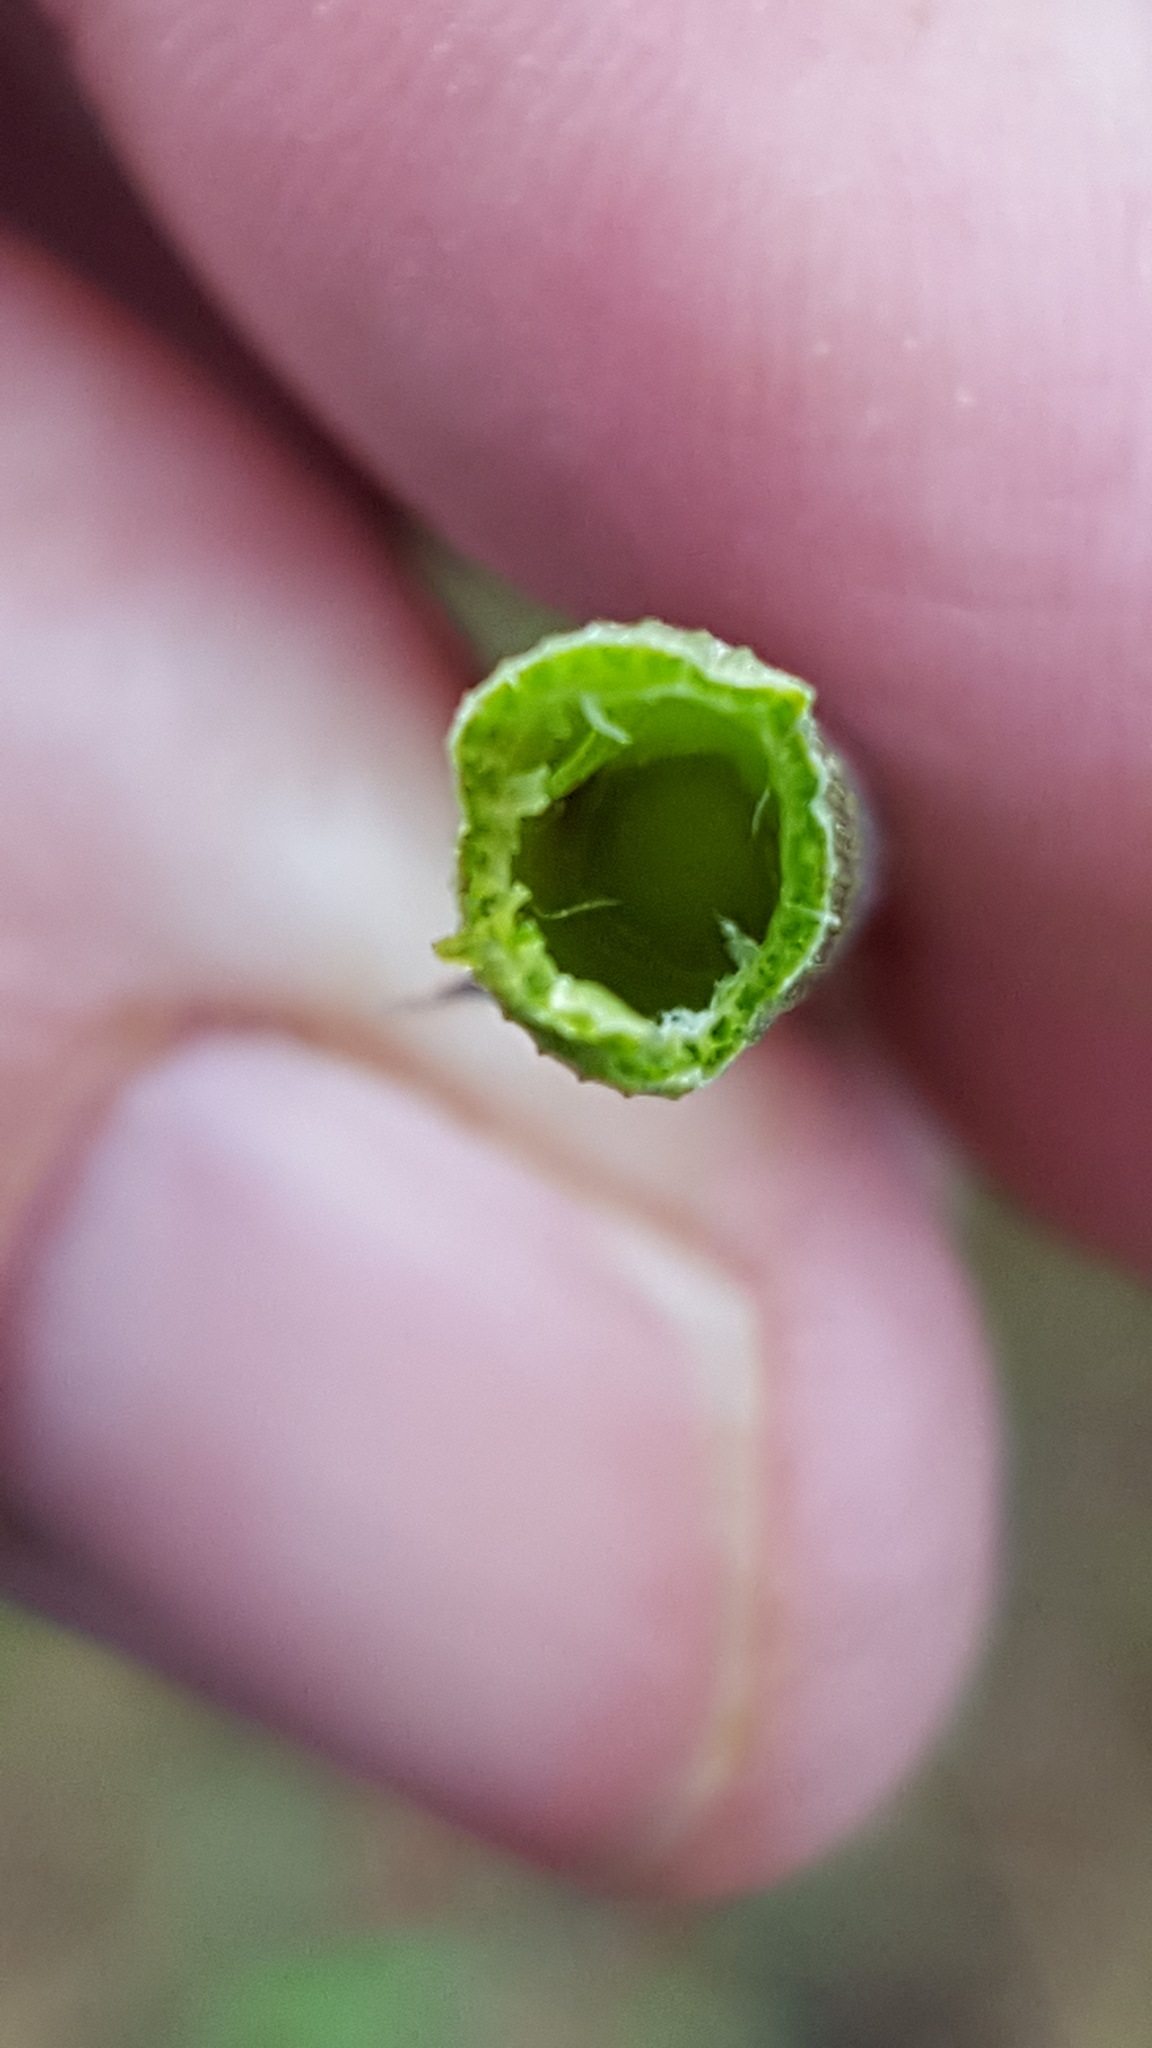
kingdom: Plantae
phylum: Tracheophyta
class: Polypodiopsida
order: Equisetales
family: Equisetaceae
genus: Equisetum
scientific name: Equisetum hyemale
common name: Rough horsetail
